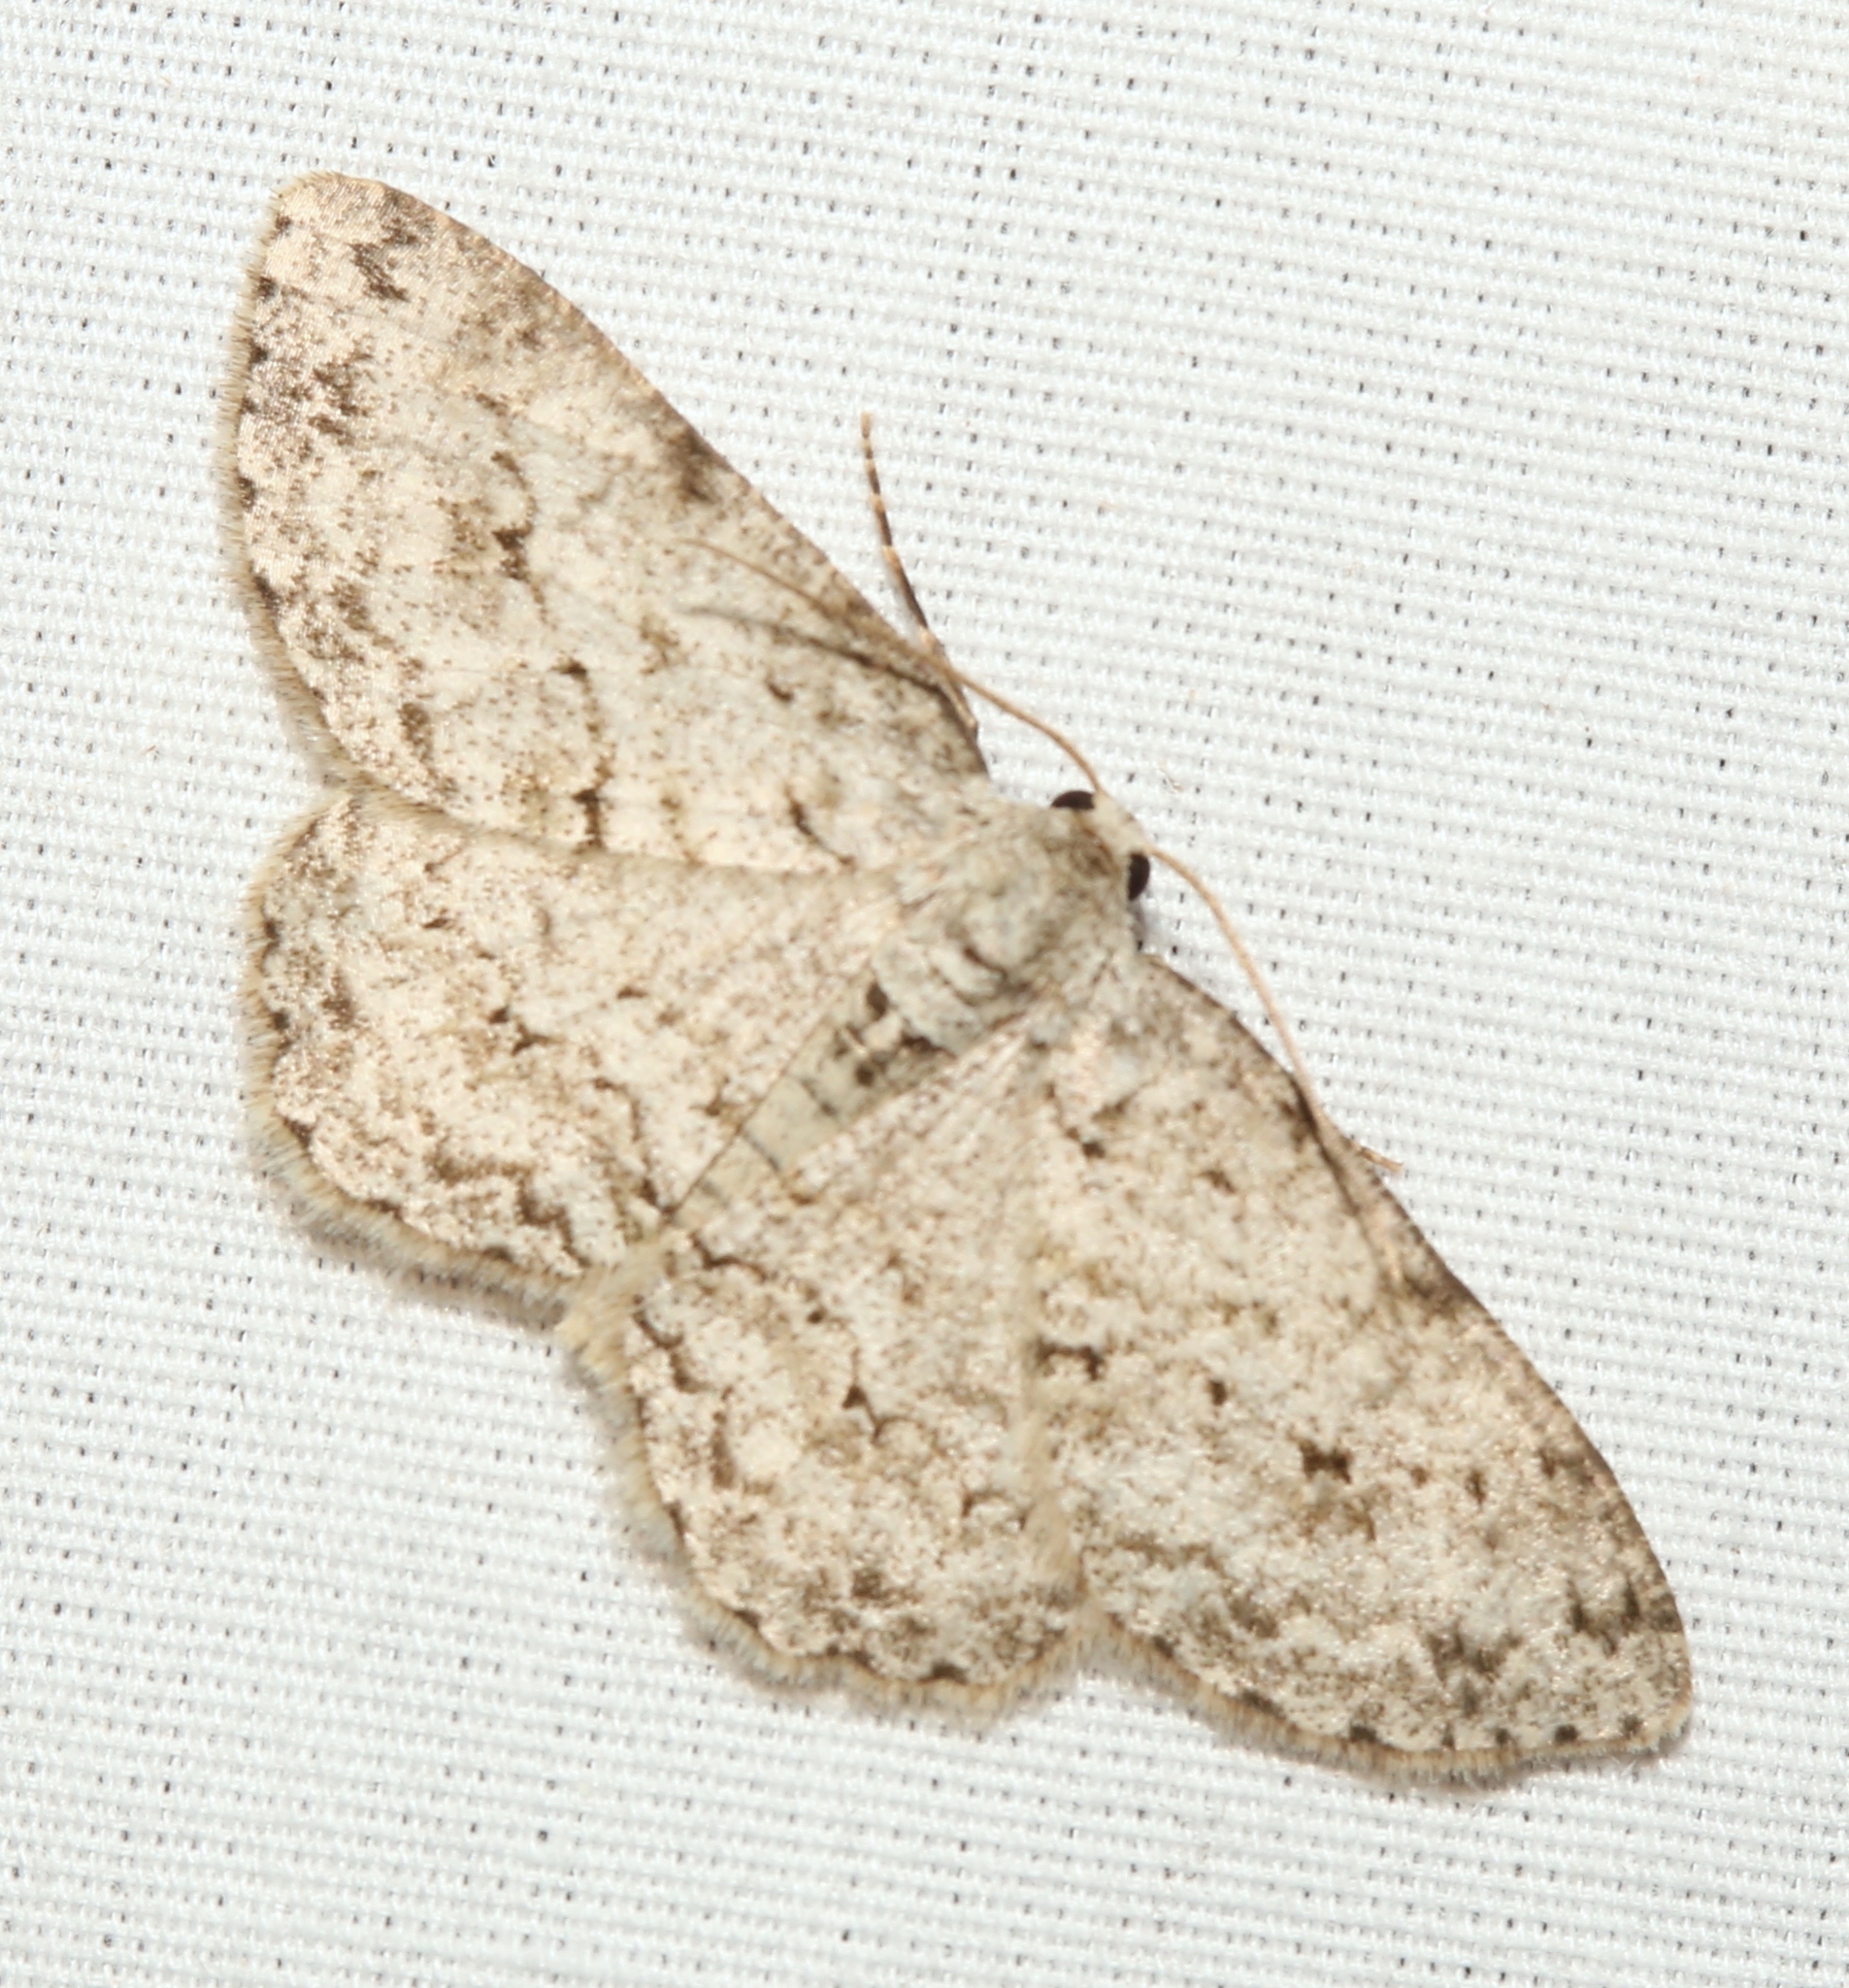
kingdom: Animalia
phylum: Arthropoda
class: Insecta
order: Lepidoptera
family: Geometridae
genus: Ectropis
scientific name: Ectropis crepuscularia
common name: Engrailed
